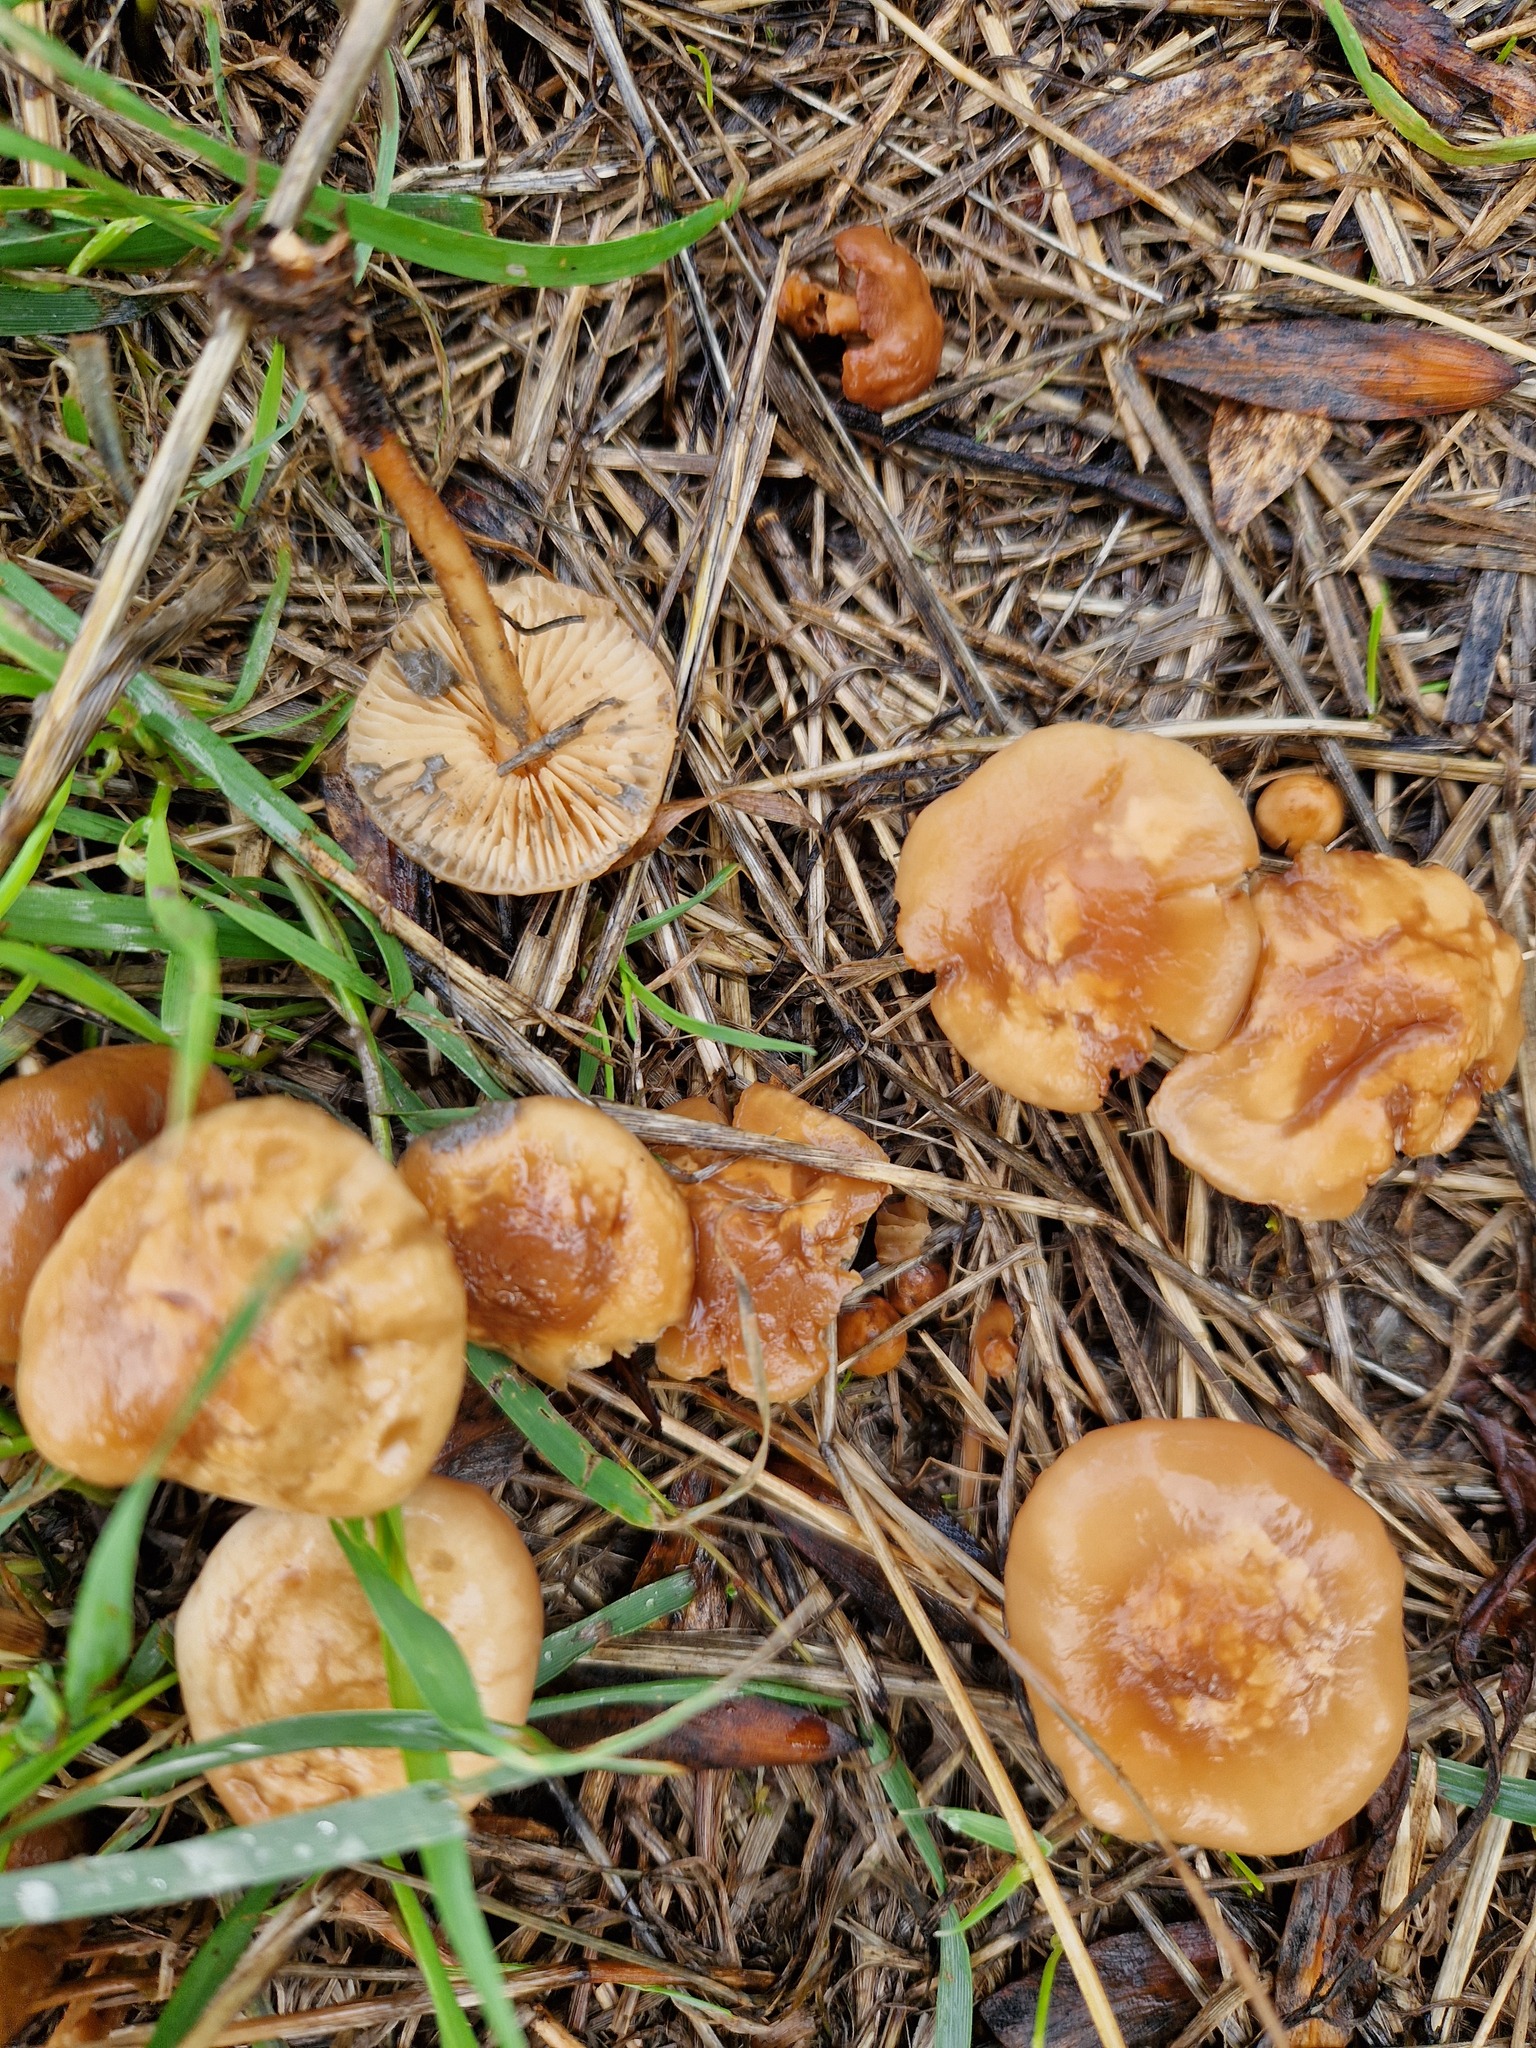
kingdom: Fungi
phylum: Basidiomycota
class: Agaricomycetes
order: Agaricales
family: Marasmiaceae
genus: Marasmius
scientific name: Marasmius oreades
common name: Fairy ring champignon
